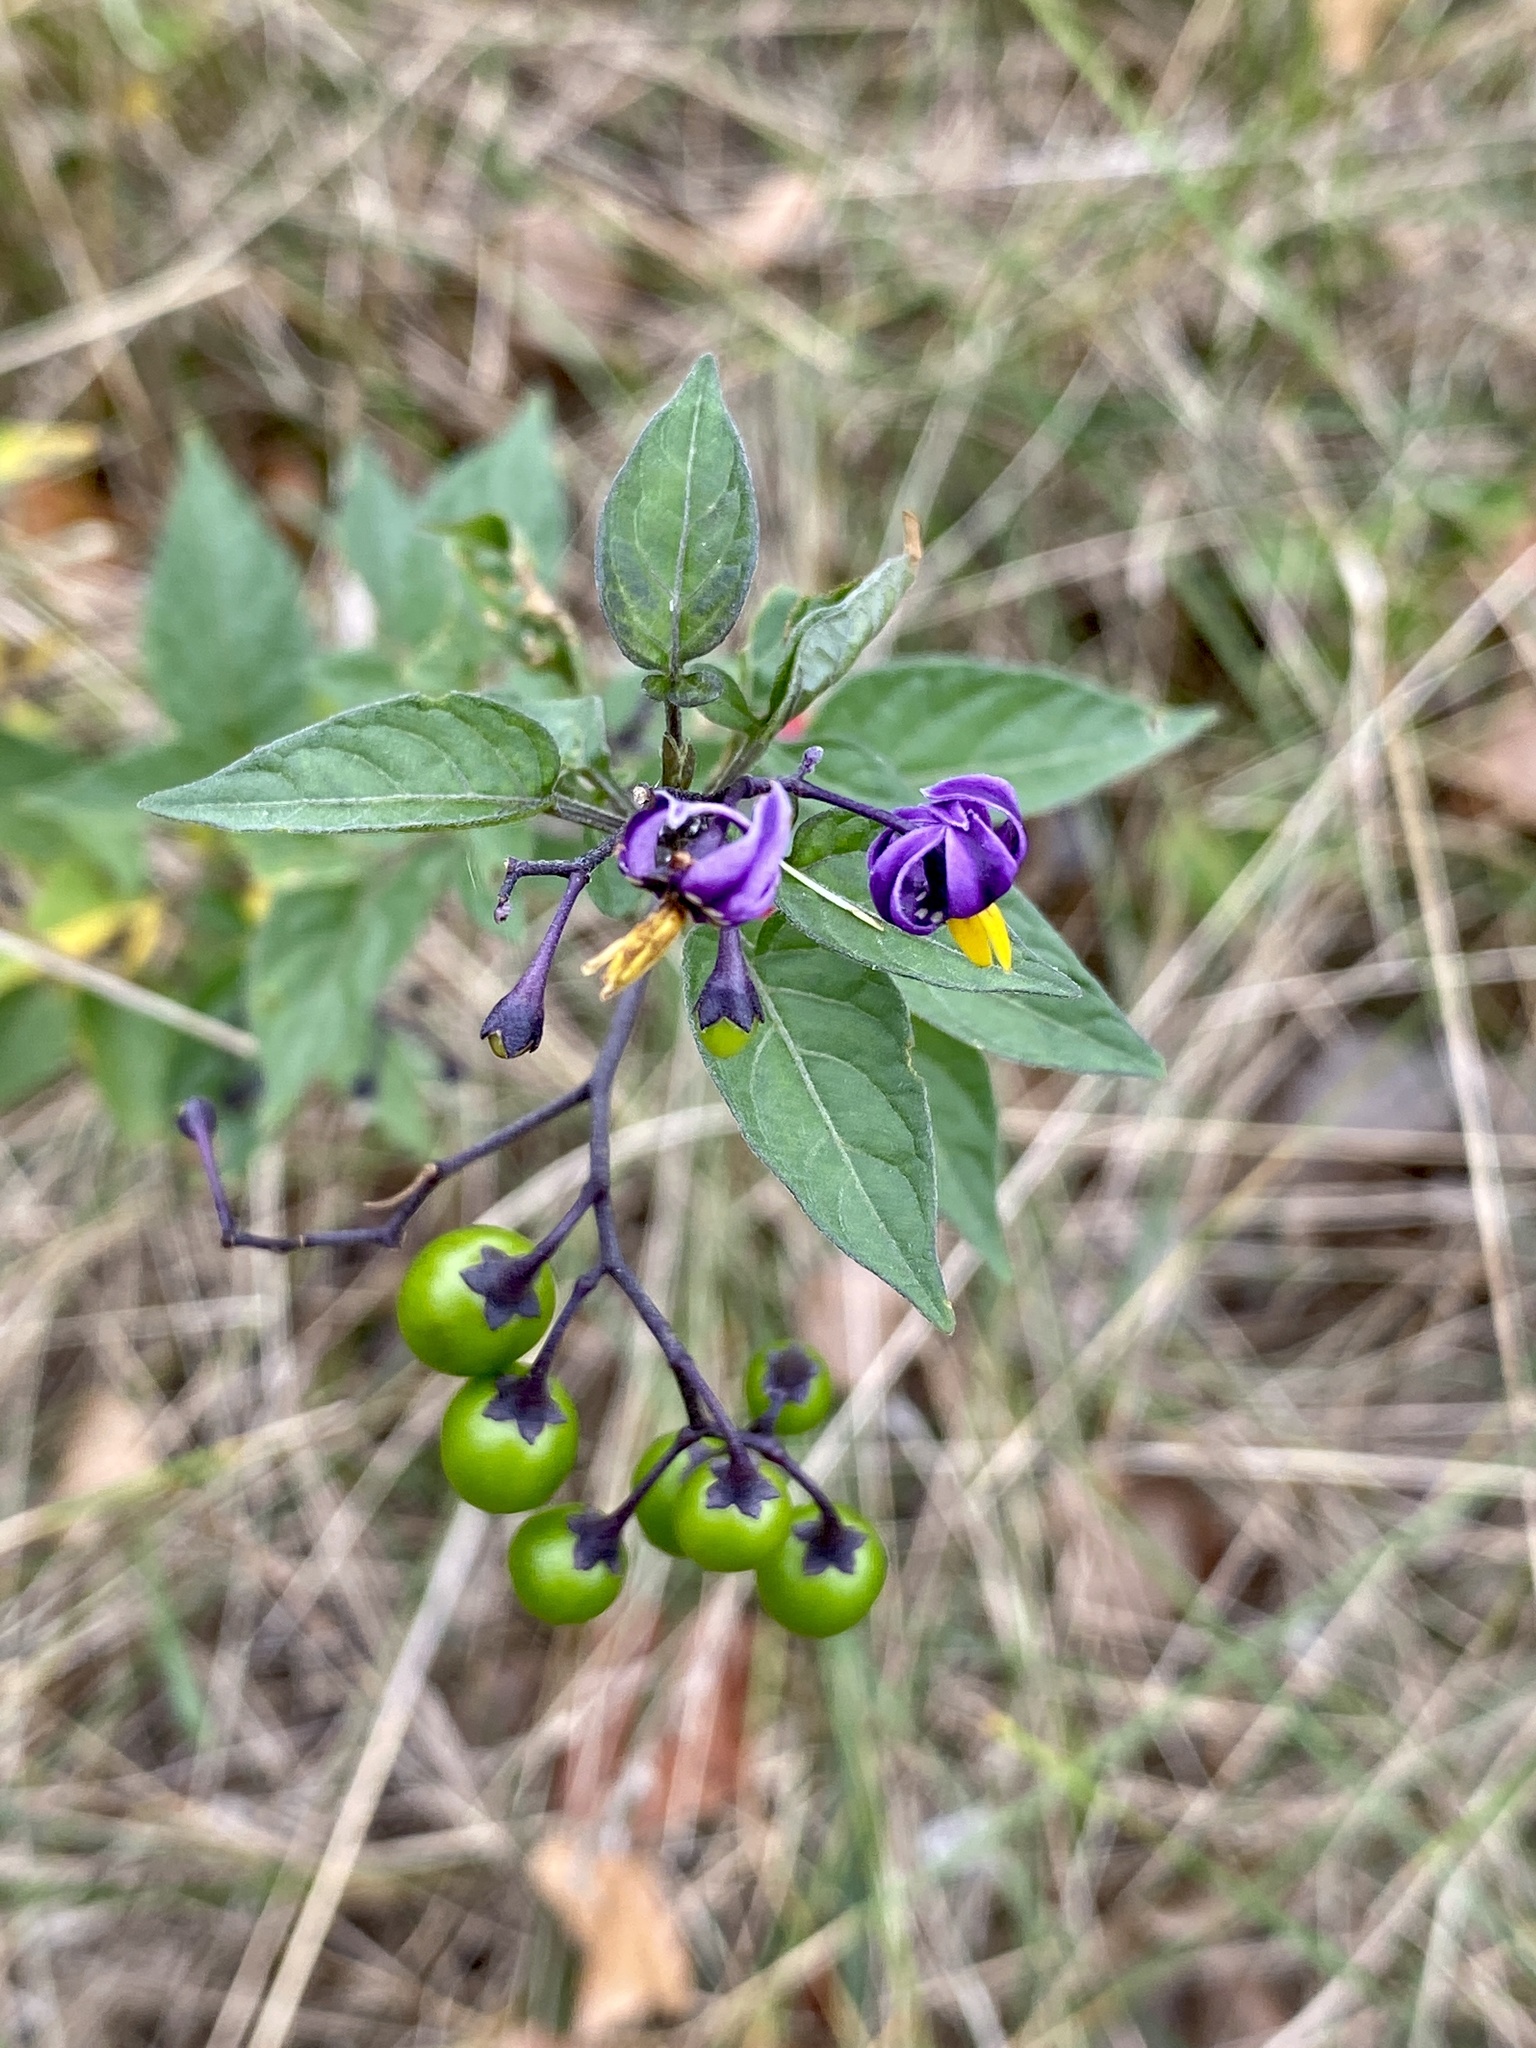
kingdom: Plantae
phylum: Tracheophyta
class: Magnoliopsida
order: Solanales
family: Solanaceae
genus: Solanum
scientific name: Solanum dulcamara
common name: Climbing nightshade
